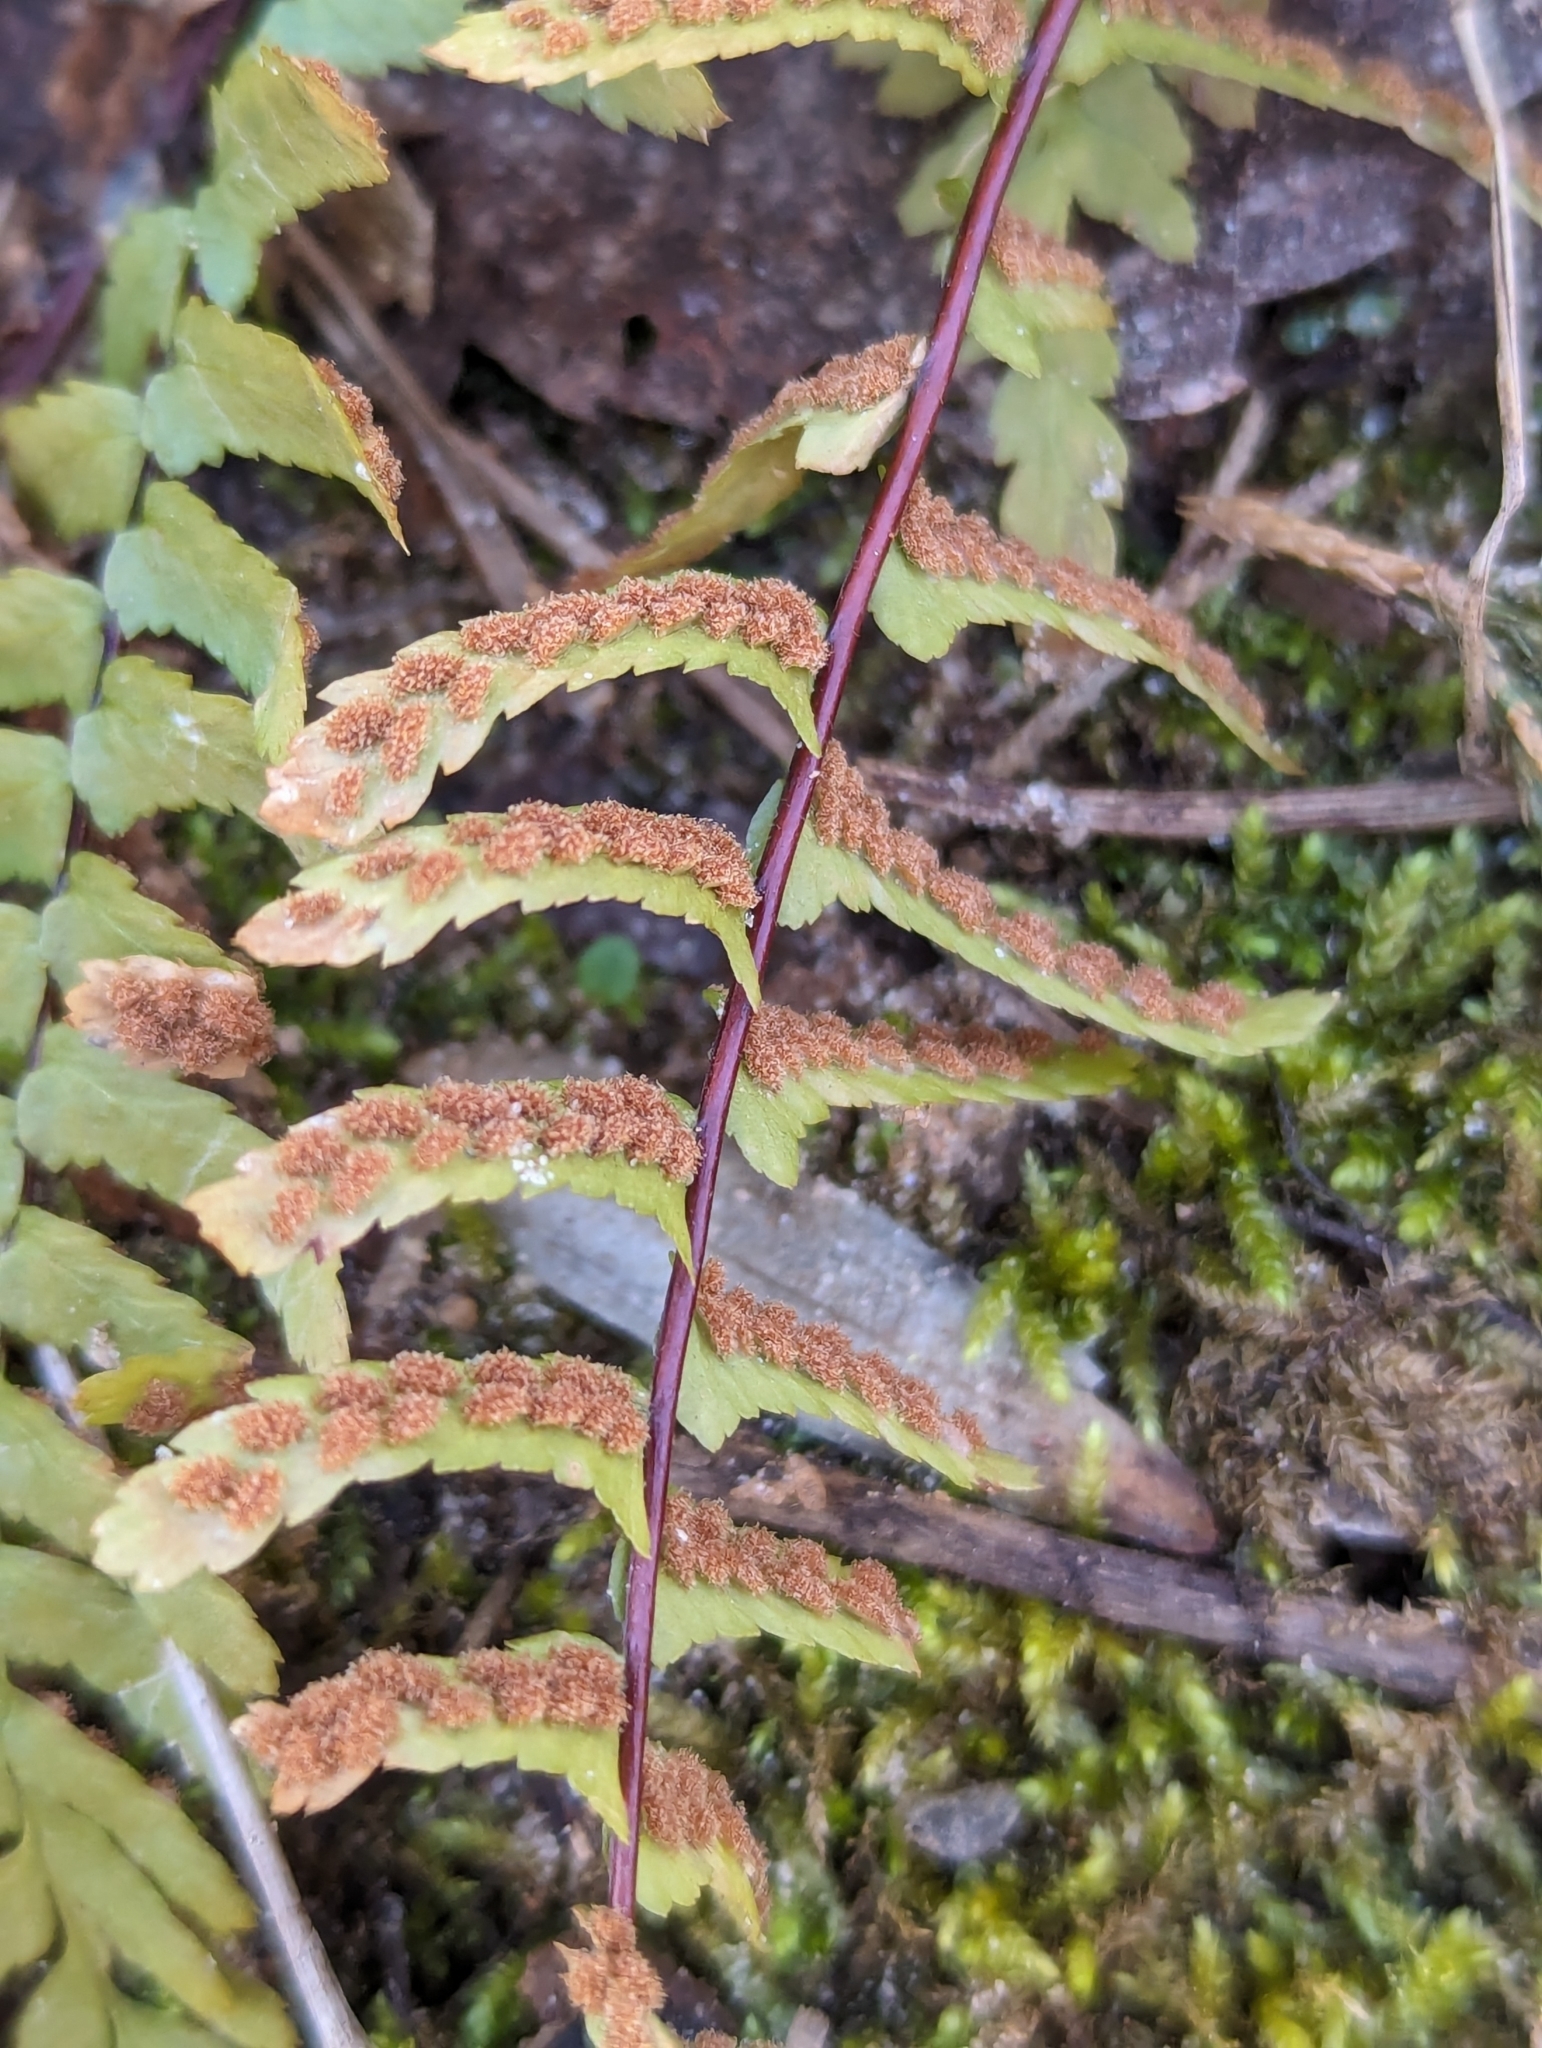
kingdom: Plantae
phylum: Tracheophyta
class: Polypodiopsida
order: Polypodiales
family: Aspleniaceae
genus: Asplenium
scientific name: Asplenium platyneuron
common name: Ebony spleenwort
